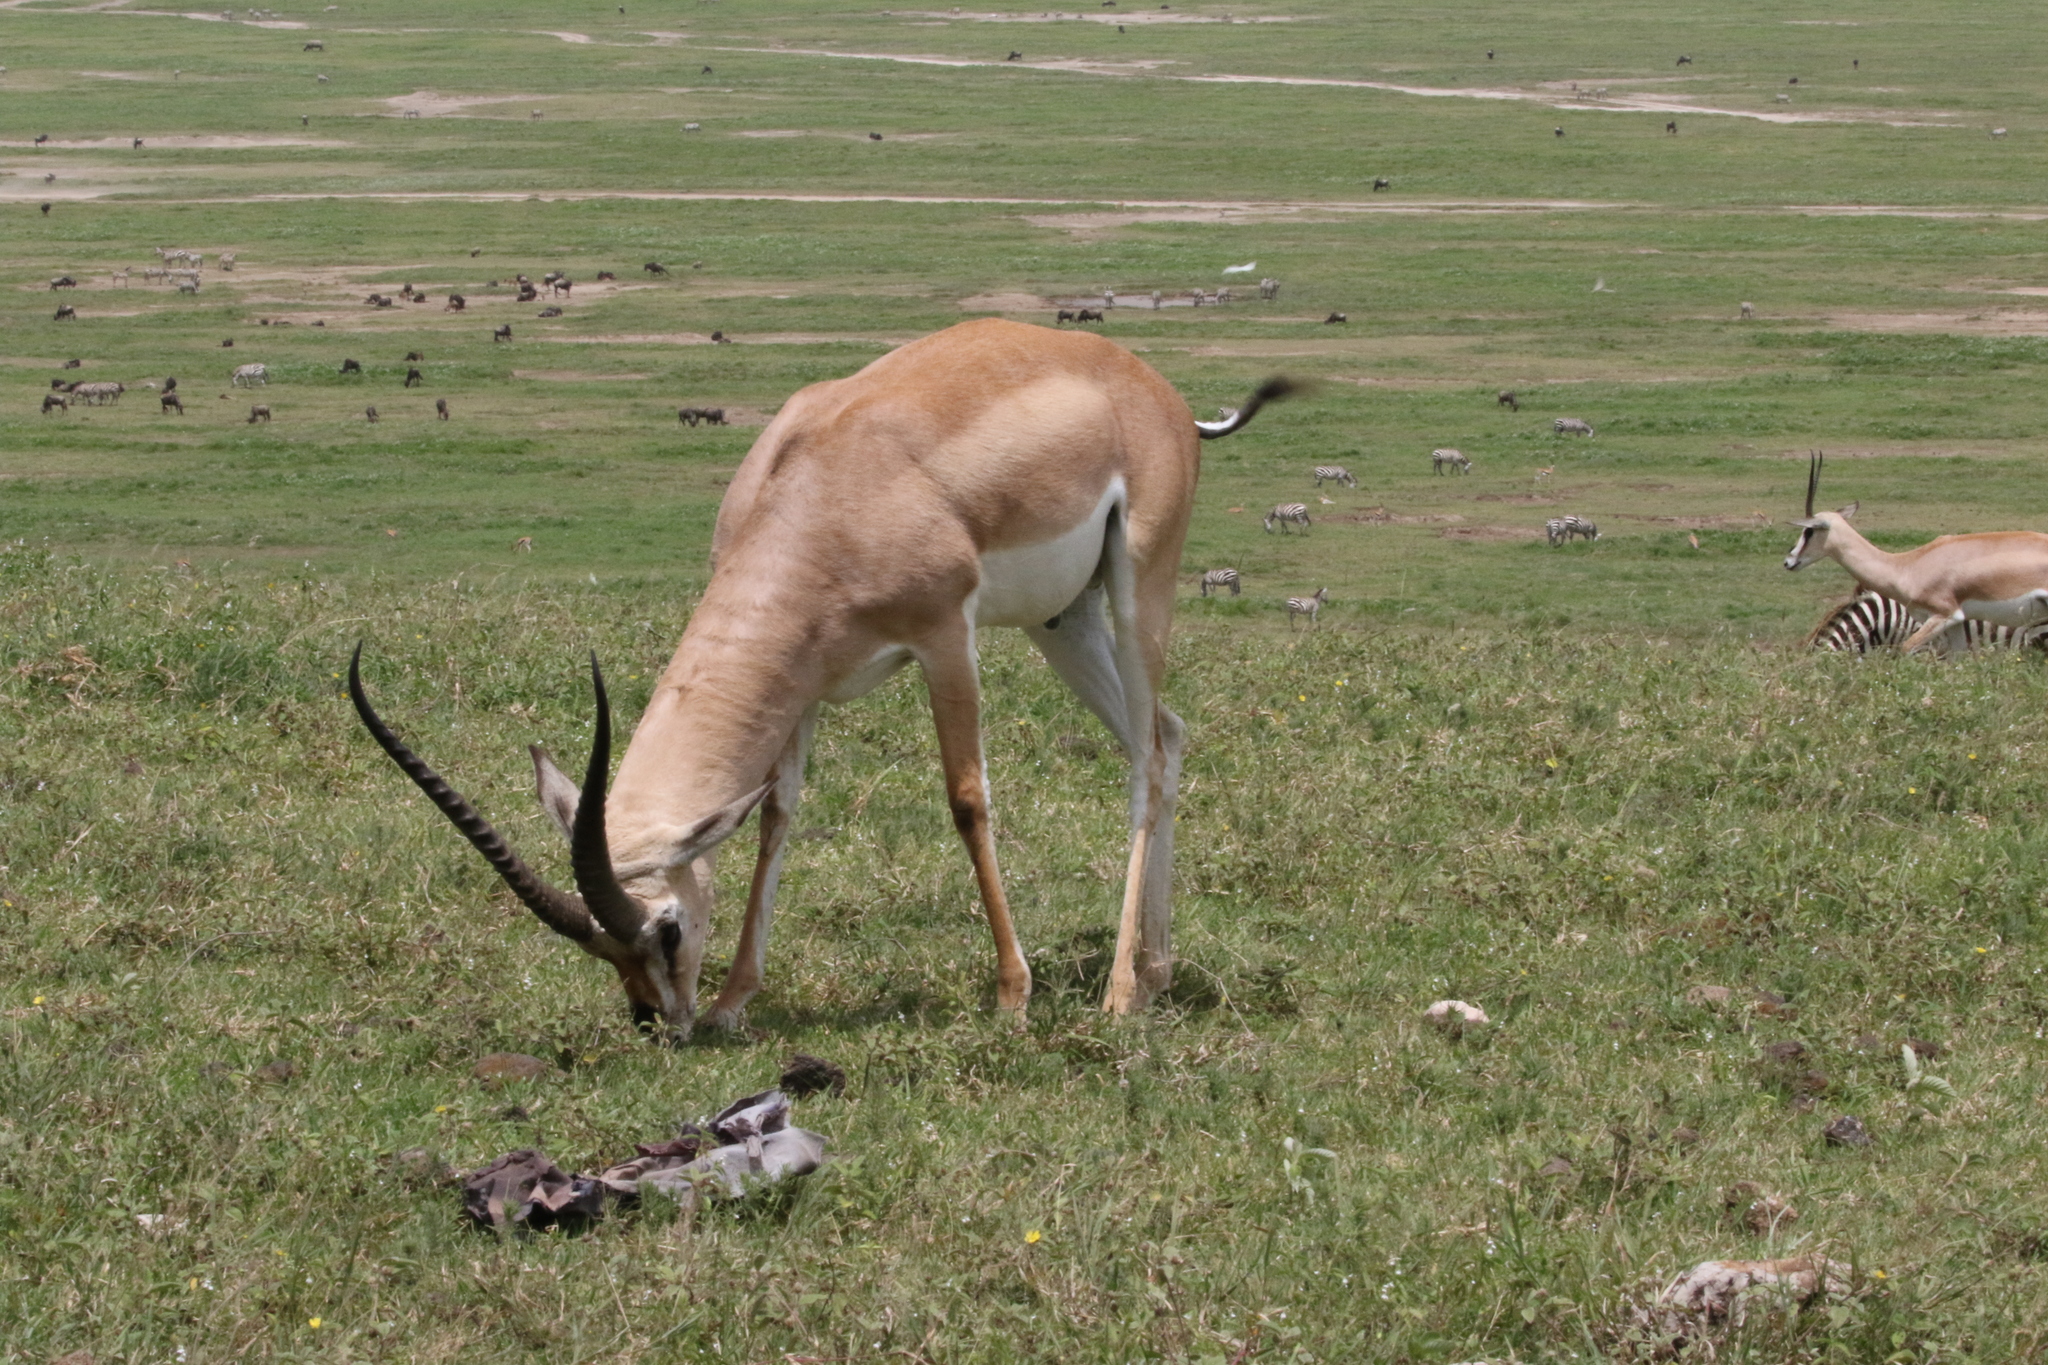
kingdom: Animalia
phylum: Chordata
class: Mammalia
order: Artiodactyla
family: Bovidae
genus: Nanger
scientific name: Nanger granti
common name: Grant's gazelle
